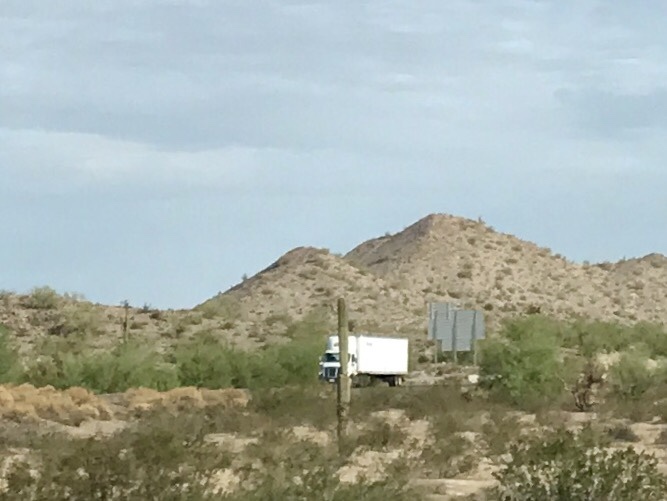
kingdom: Plantae
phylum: Tracheophyta
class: Magnoliopsida
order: Caryophyllales
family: Cactaceae
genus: Carnegiea
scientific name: Carnegiea gigantea
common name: Saguaro
